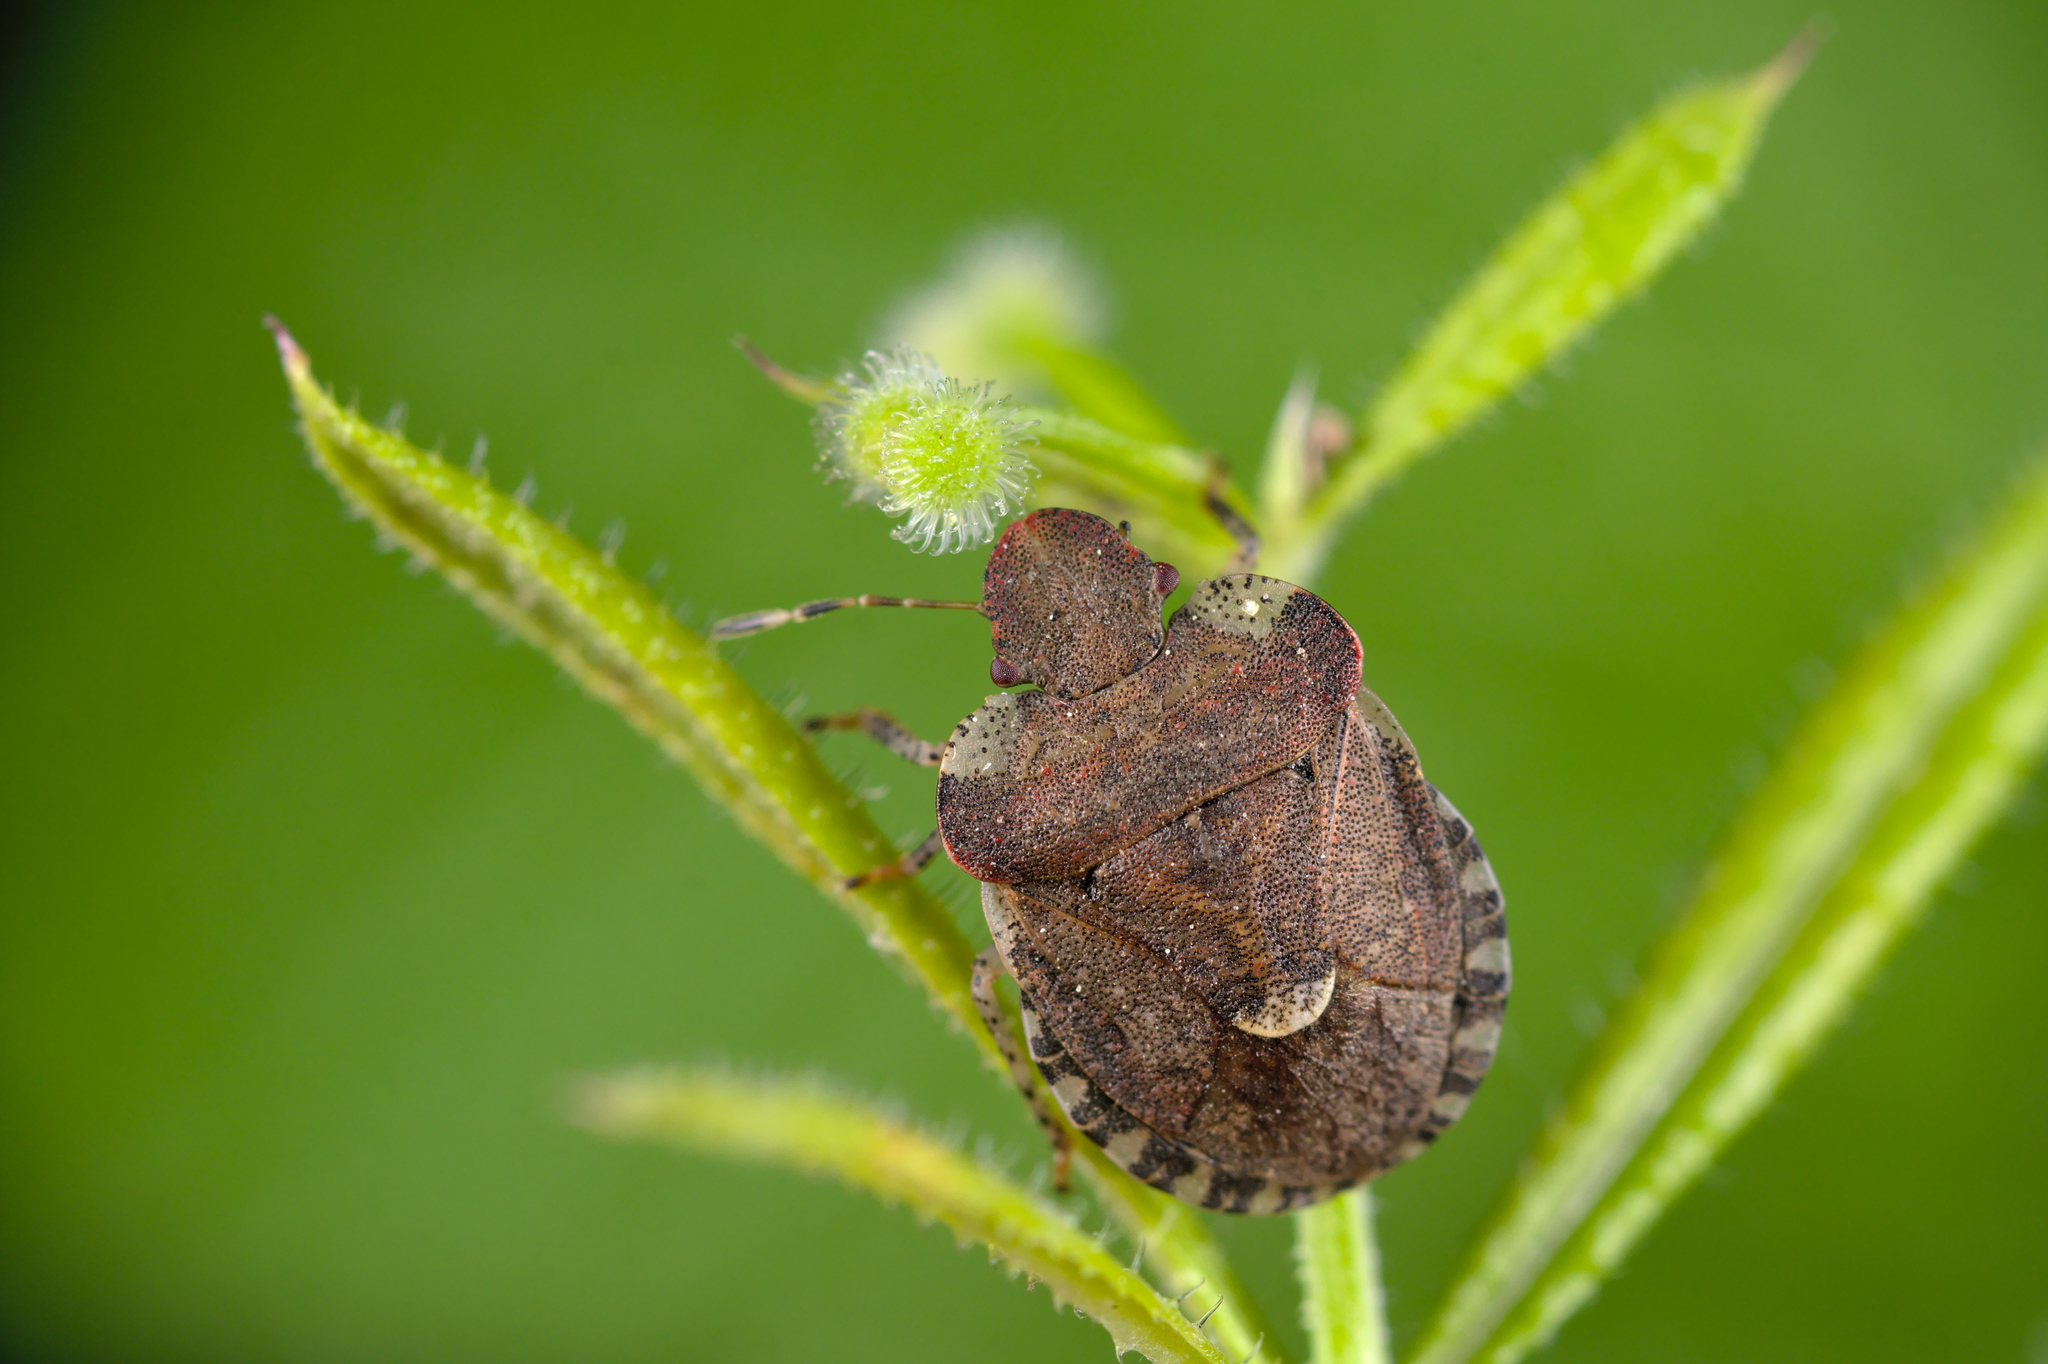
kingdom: Animalia
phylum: Arthropoda
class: Insecta
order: Hemiptera
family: Pentatomidae
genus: Dyroderes
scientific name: Dyroderes umbraculatus
